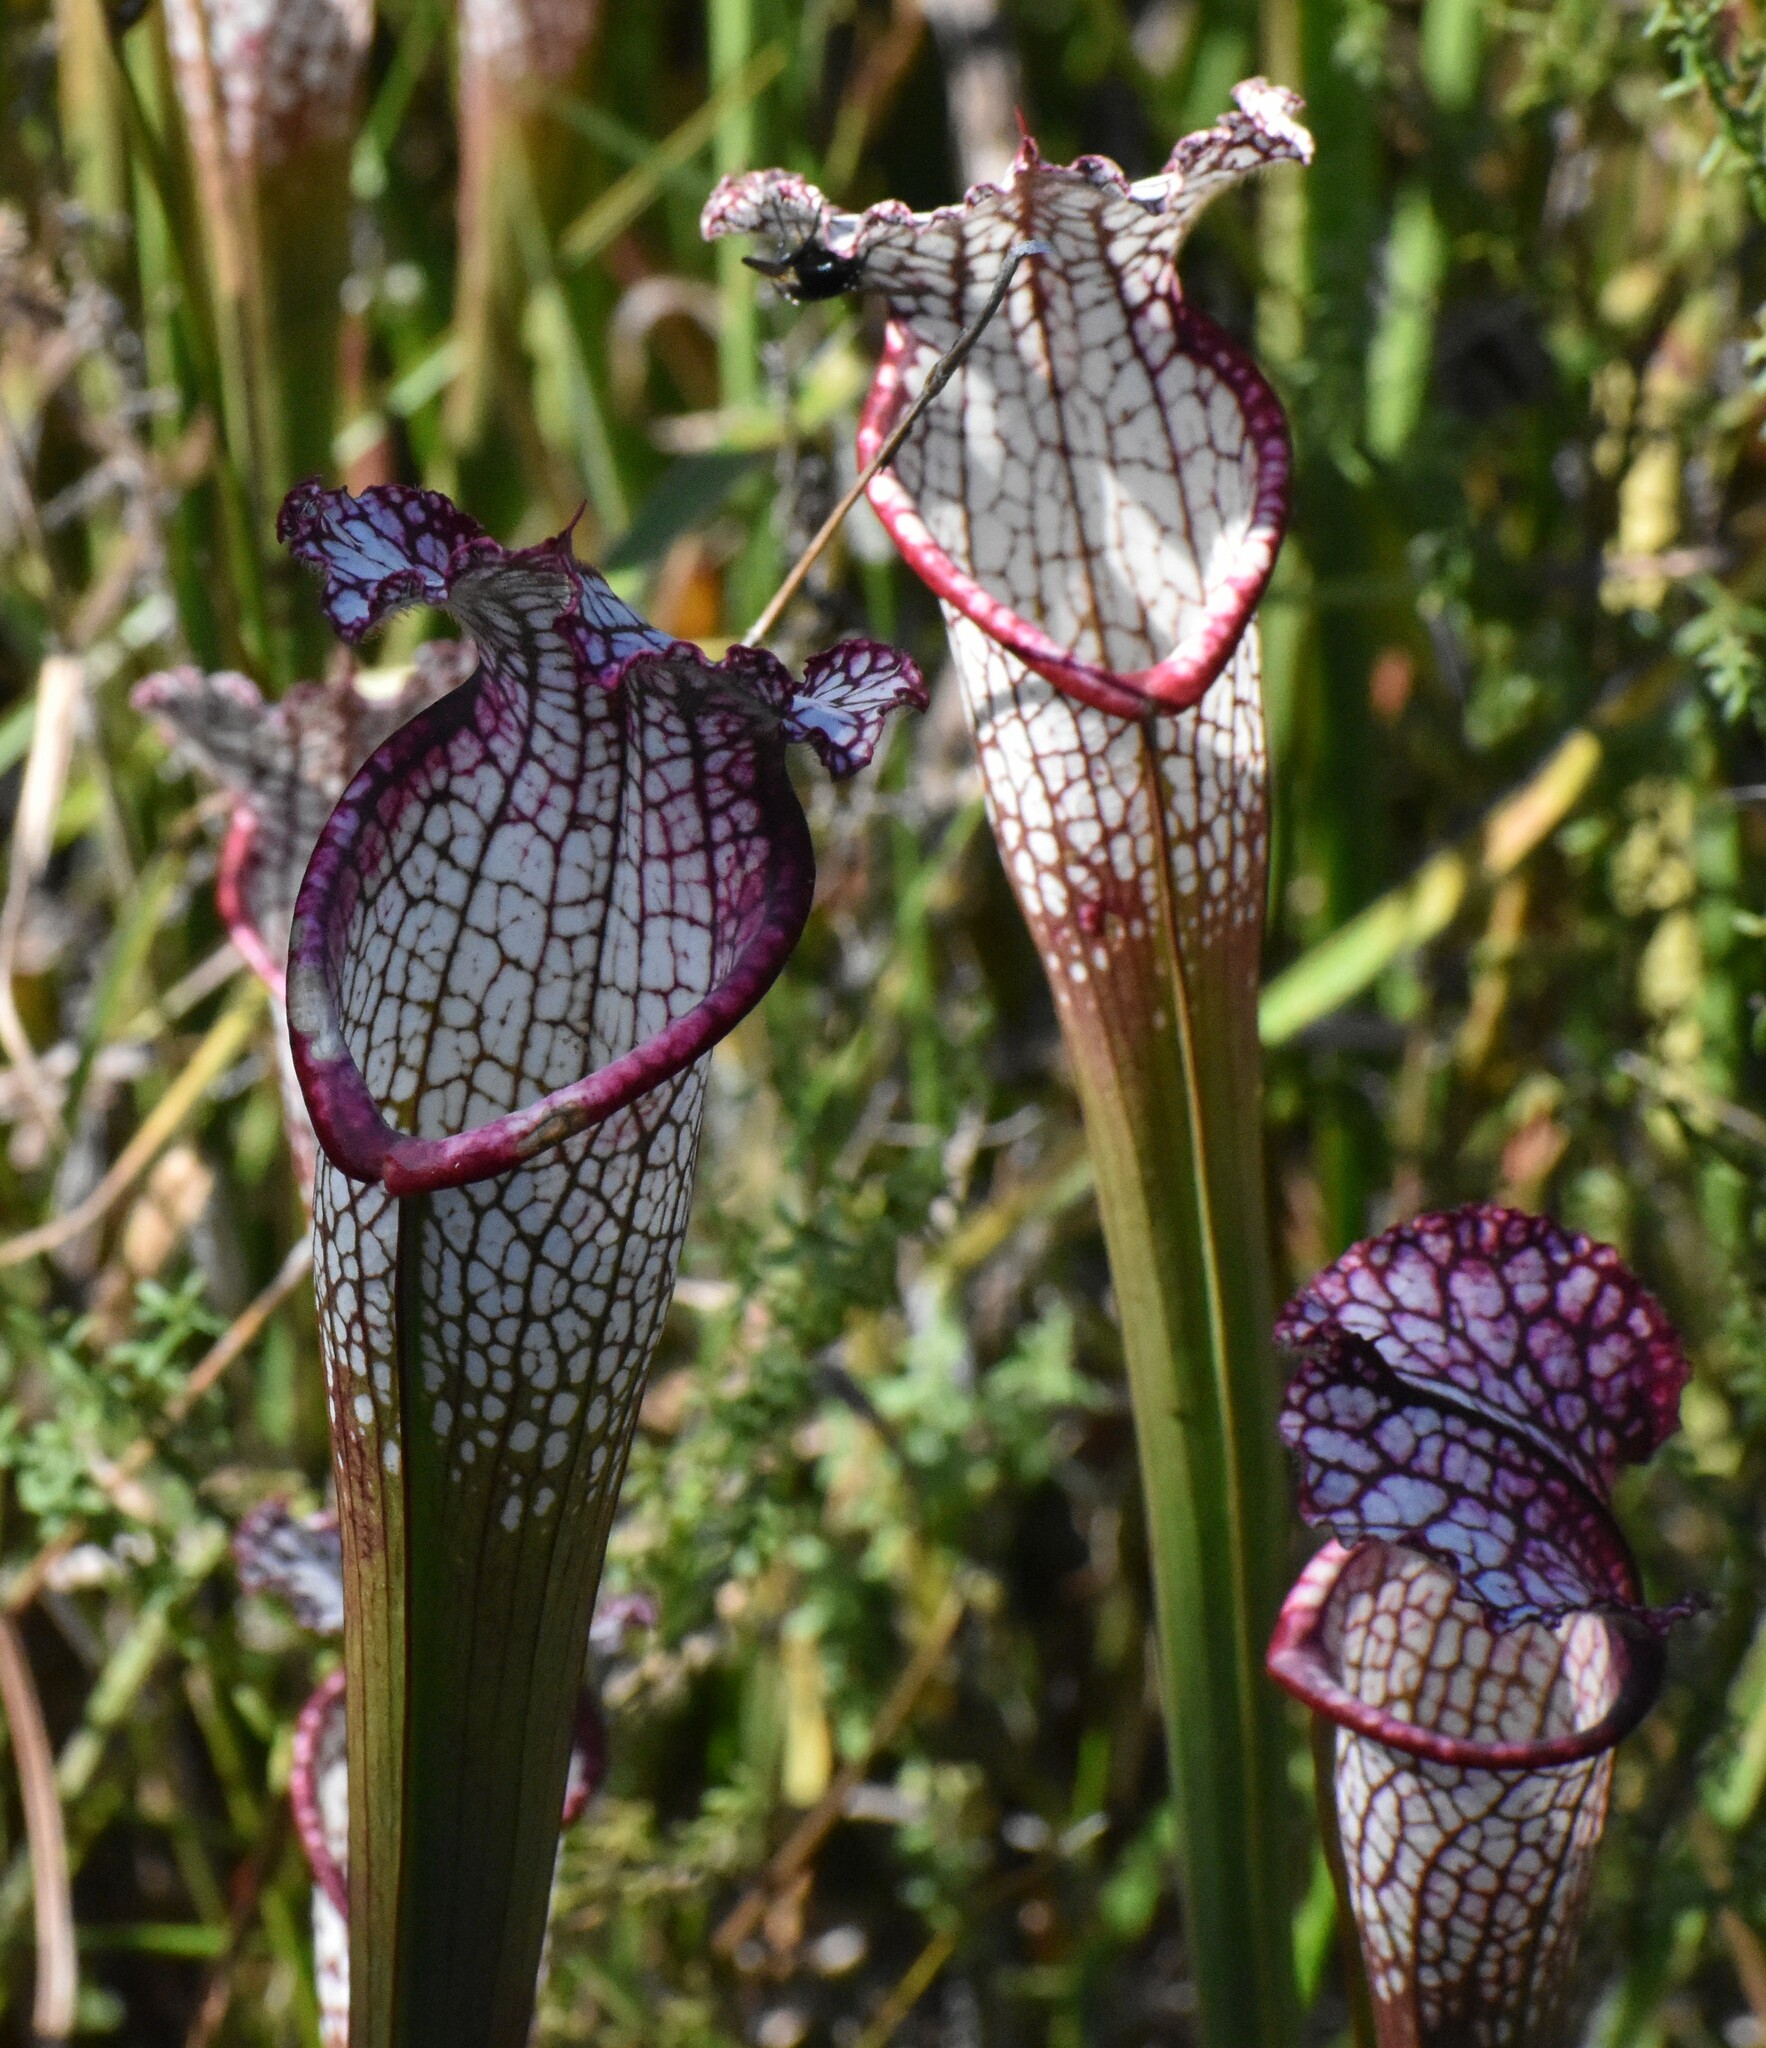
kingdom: Plantae
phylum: Tracheophyta
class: Magnoliopsida
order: Ericales
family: Sarraceniaceae
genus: Sarracenia
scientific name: Sarracenia leucophylla
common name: Purple trumpetleaf
